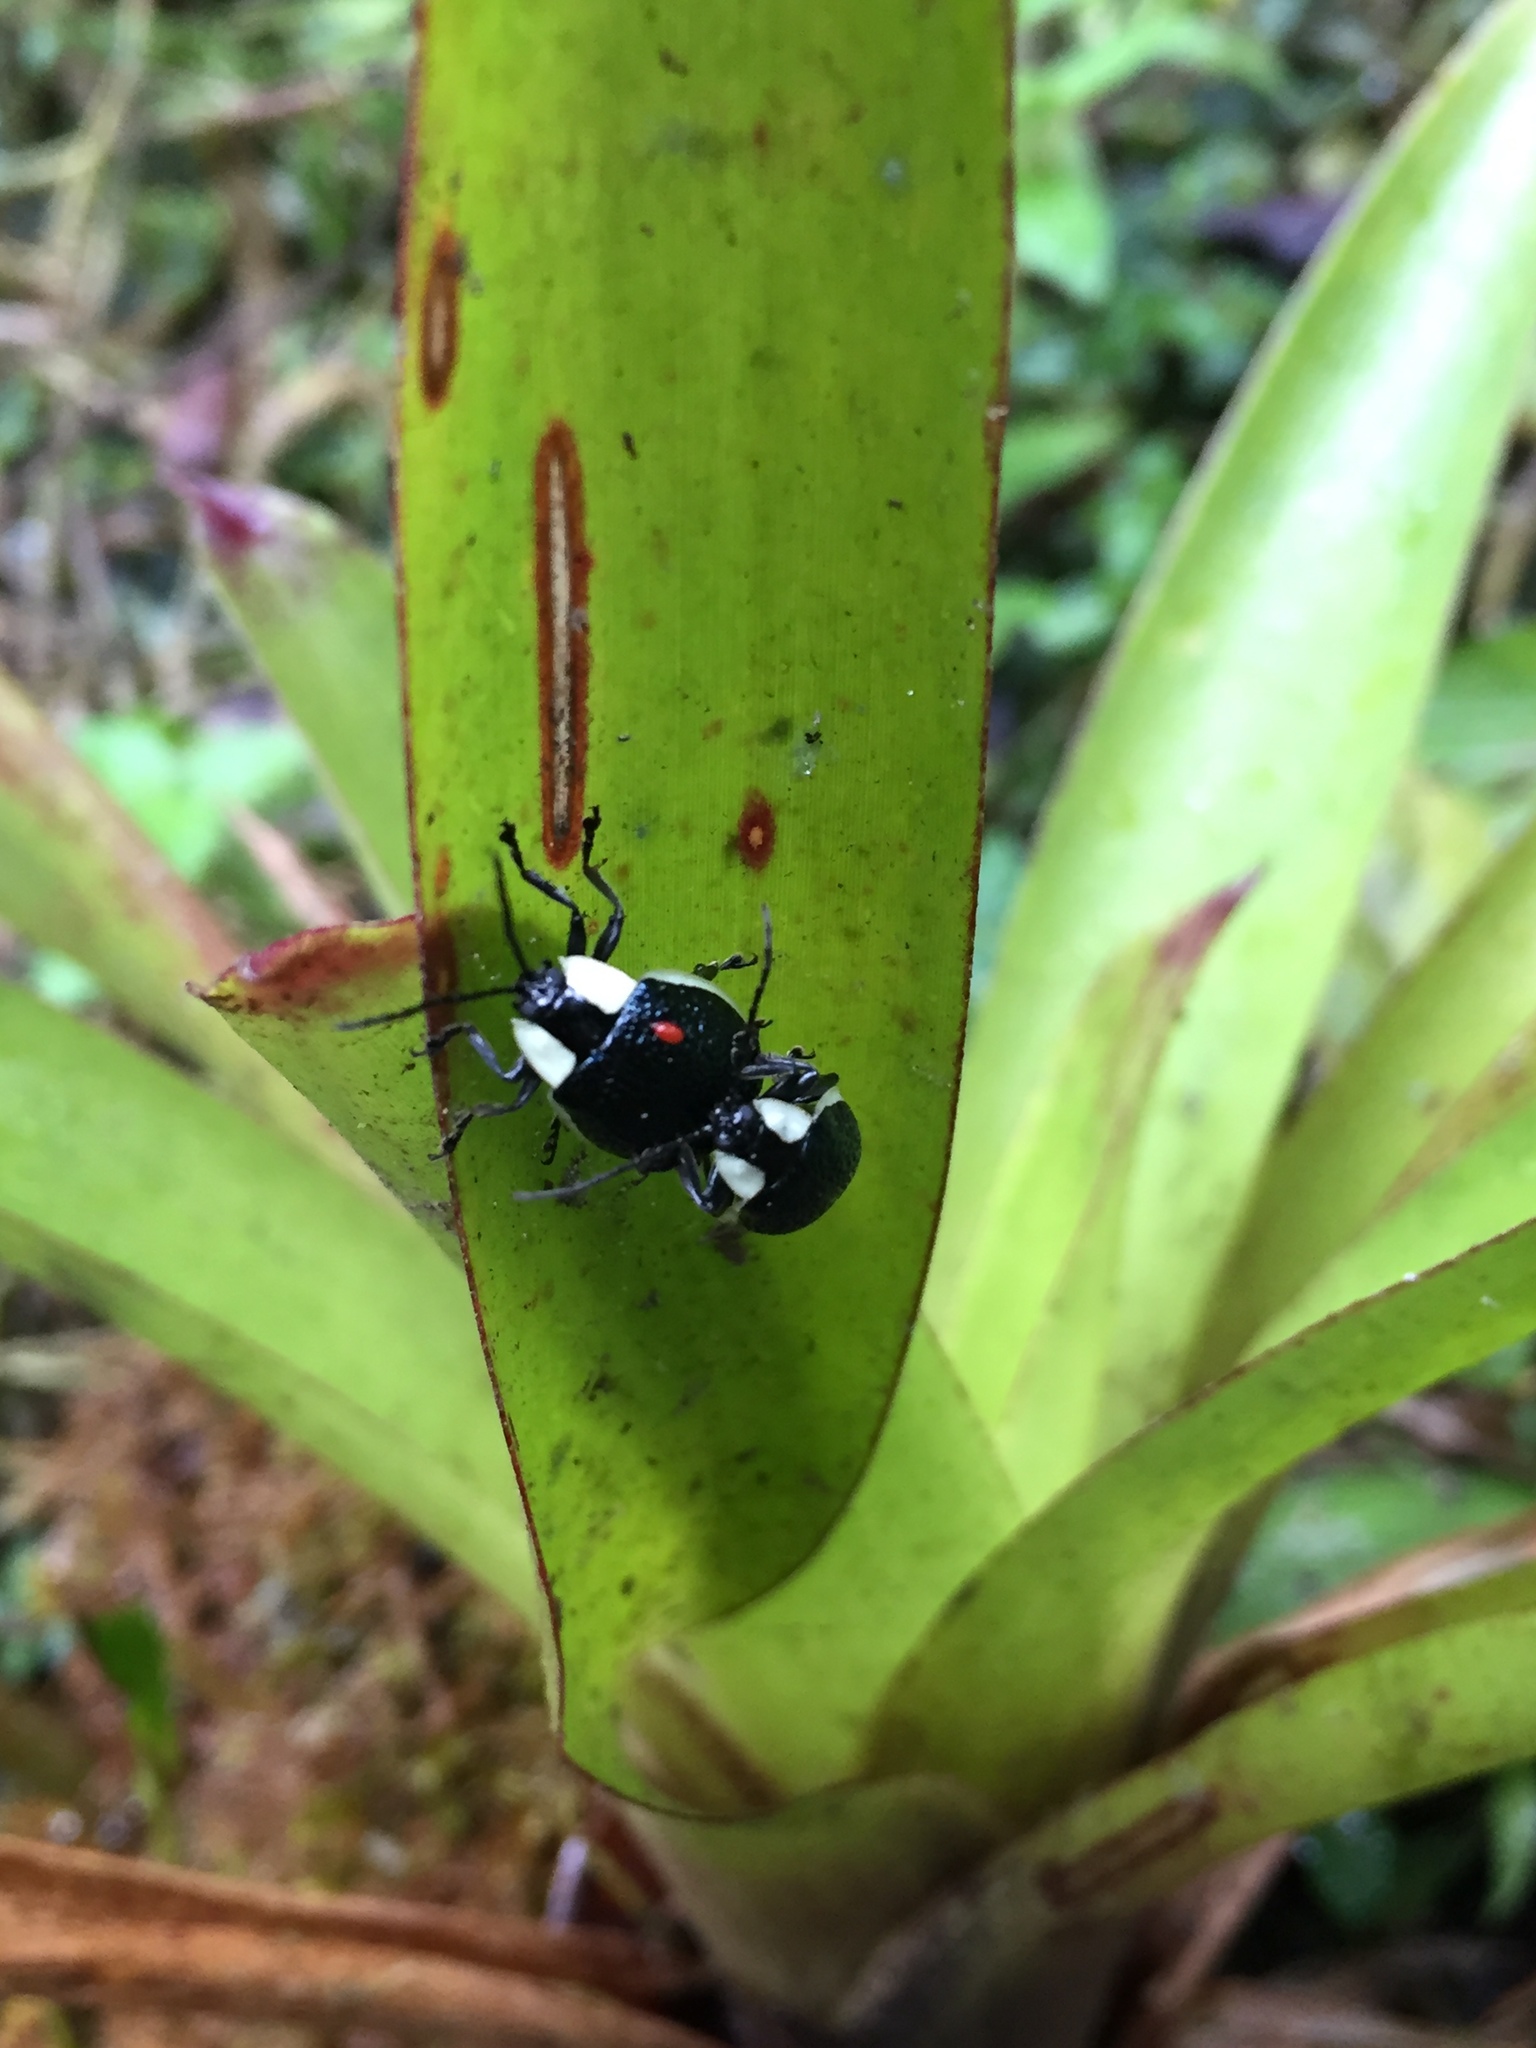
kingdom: Animalia
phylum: Arthropoda
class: Insecta
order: Coleoptera
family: Chrysomelidae
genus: Aspicela
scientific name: Aspicela
